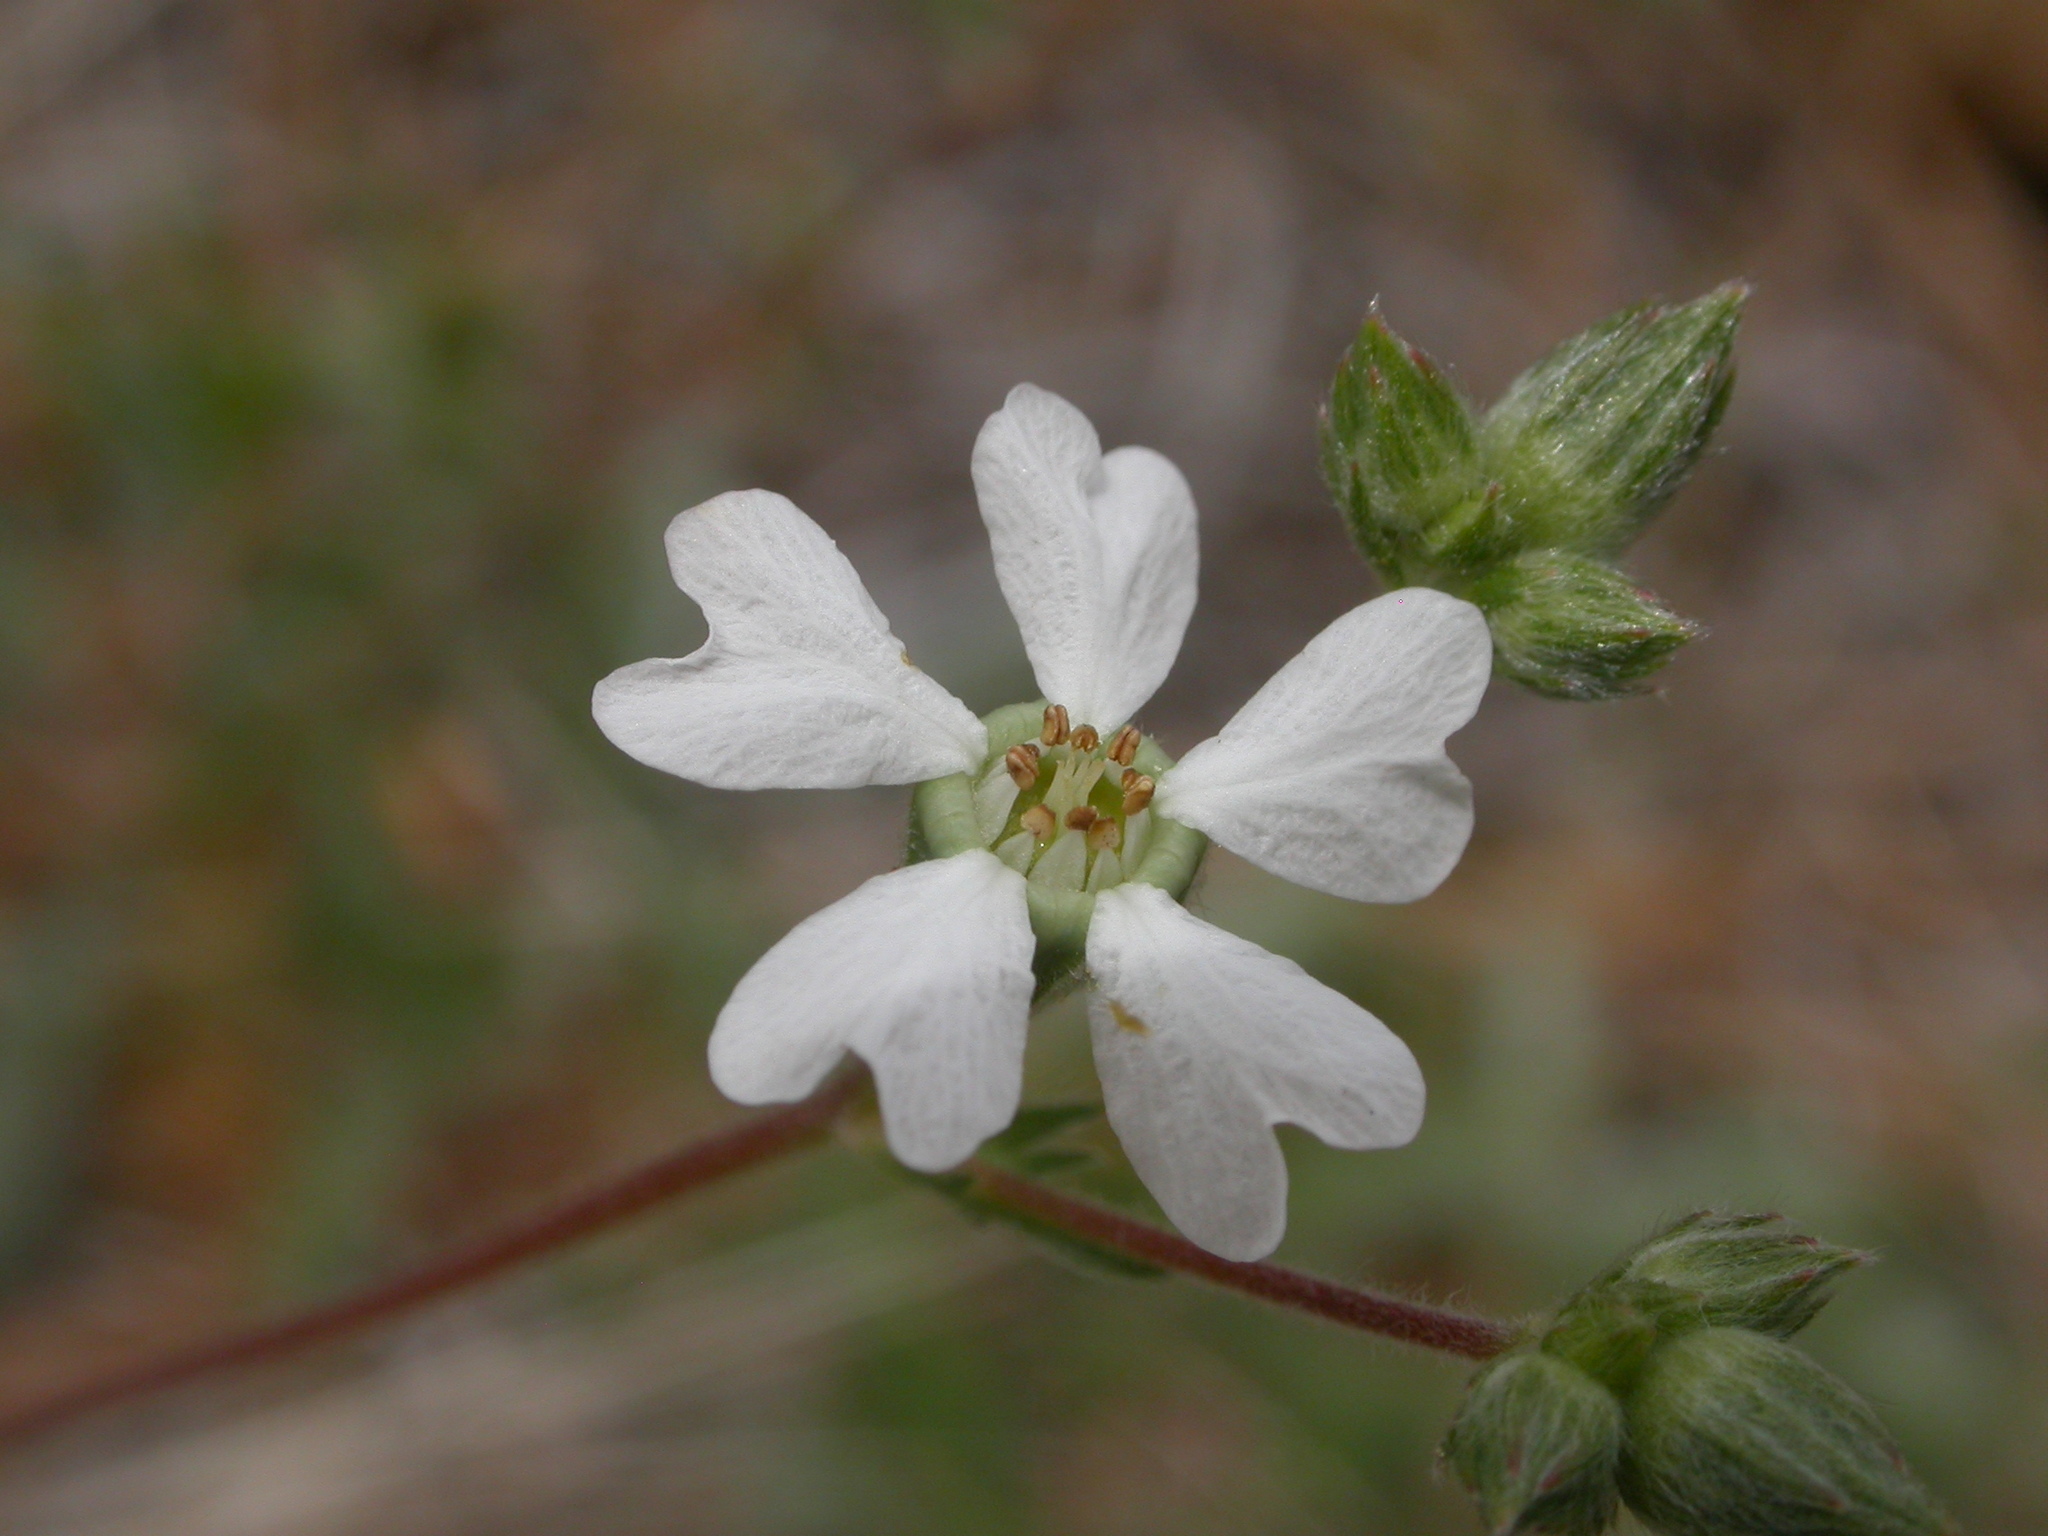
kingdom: Plantae
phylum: Tracheophyta
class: Magnoliopsida
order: Rosales
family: Rosaceae
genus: Potentilla
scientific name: Potentilla sericata
